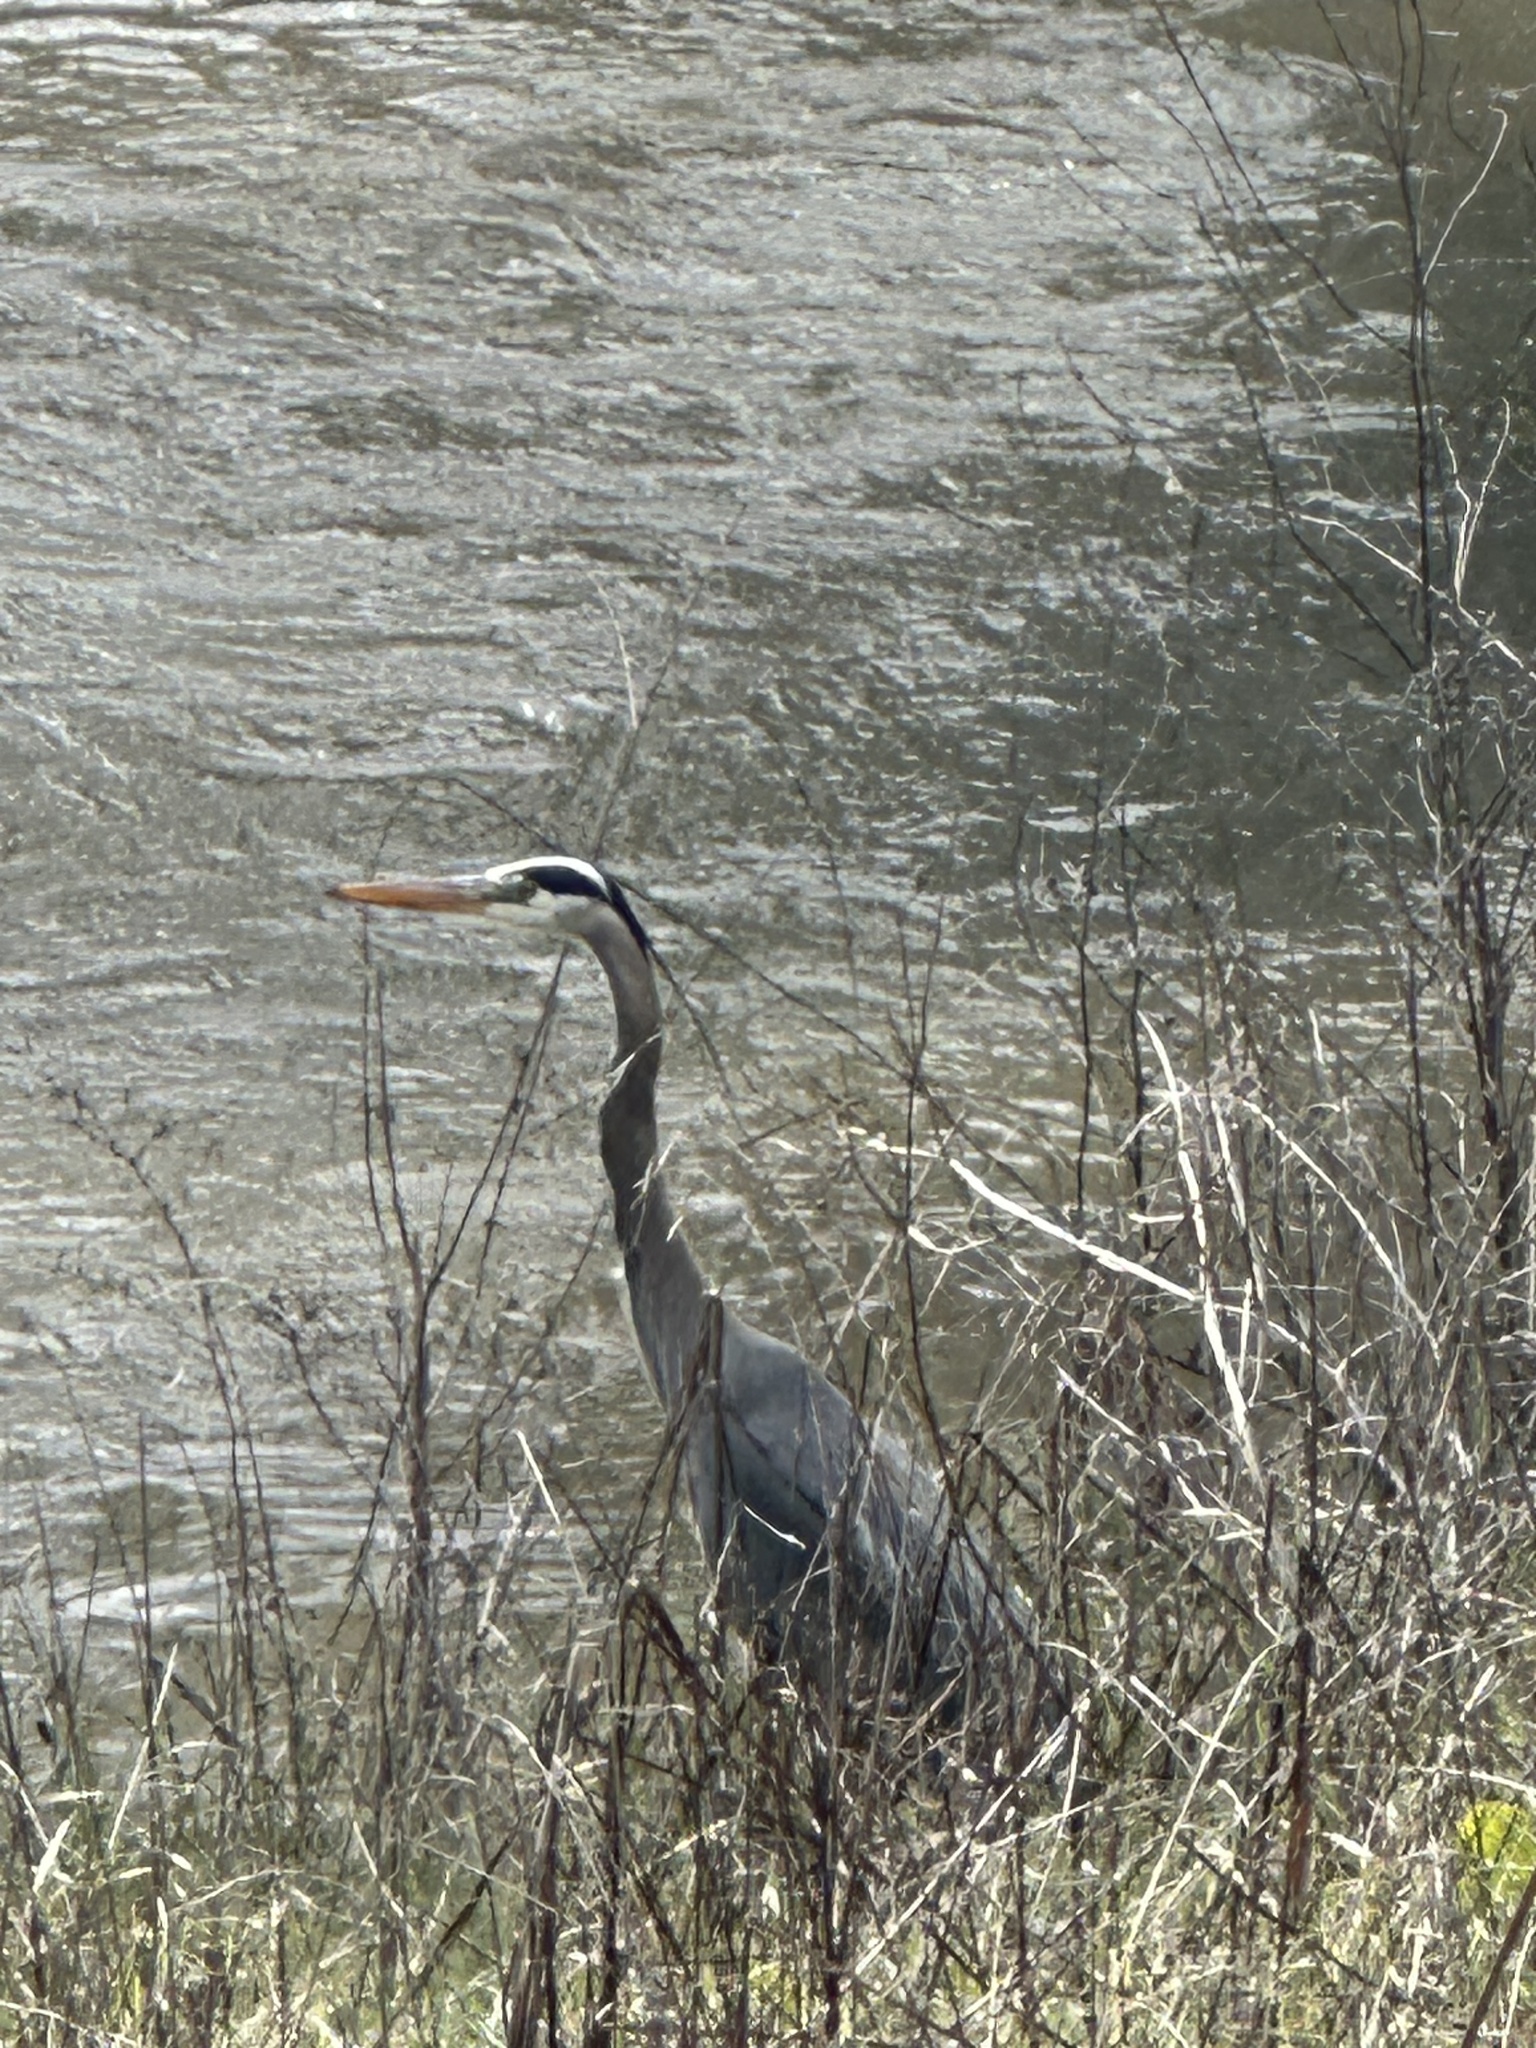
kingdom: Animalia
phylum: Chordata
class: Aves
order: Pelecaniformes
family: Ardeidae
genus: Ardea
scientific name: Ardea herodias
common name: Great blue heron
